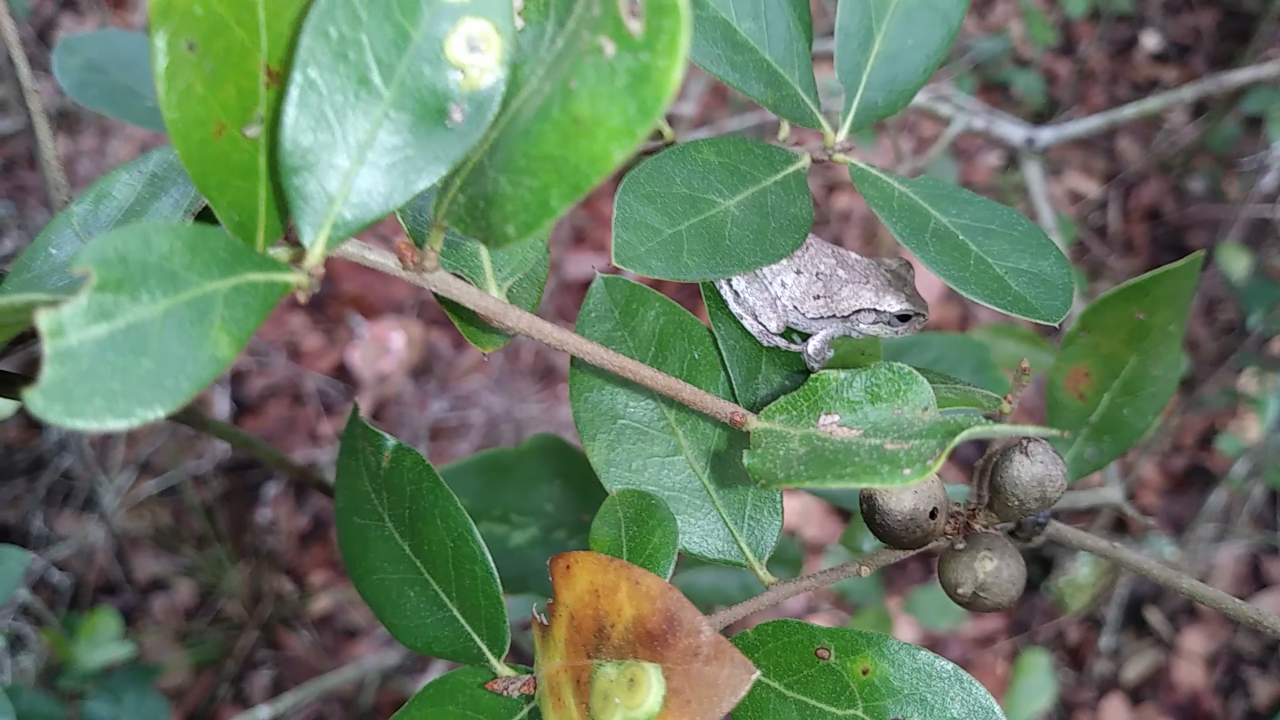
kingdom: Animalia
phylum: Chordata
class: Amphibia
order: Anura
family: Hylidae
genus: Hyla
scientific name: Hyla femoralis
